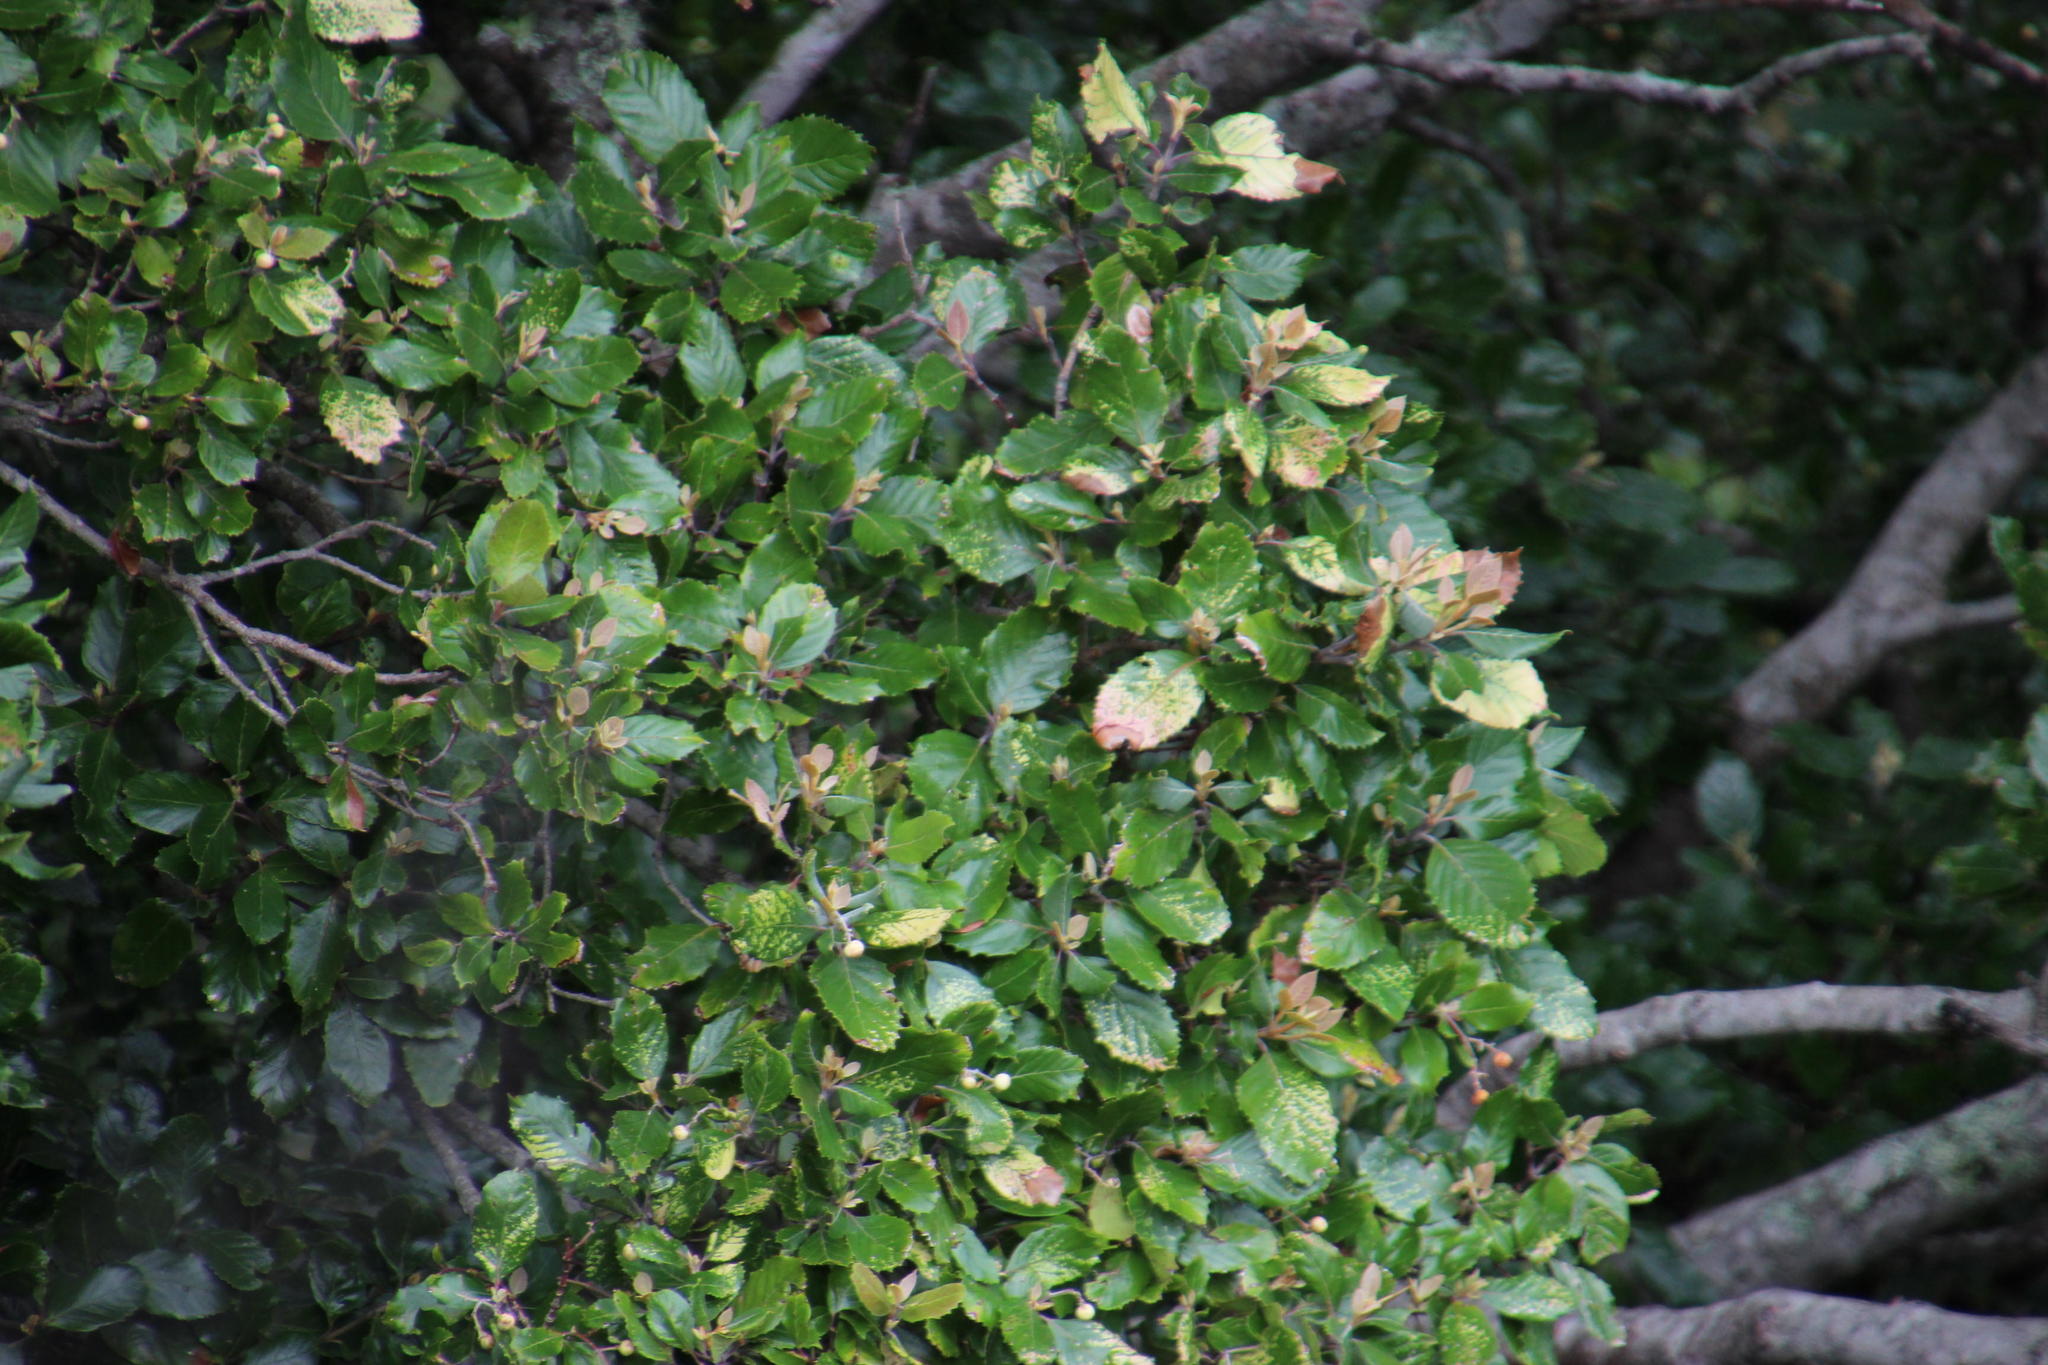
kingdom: Plantae
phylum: Tracheophyta
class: Magnoliopsida
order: Cornales
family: Curtisiaceae
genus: Curtisia
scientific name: Curtisia dentata
